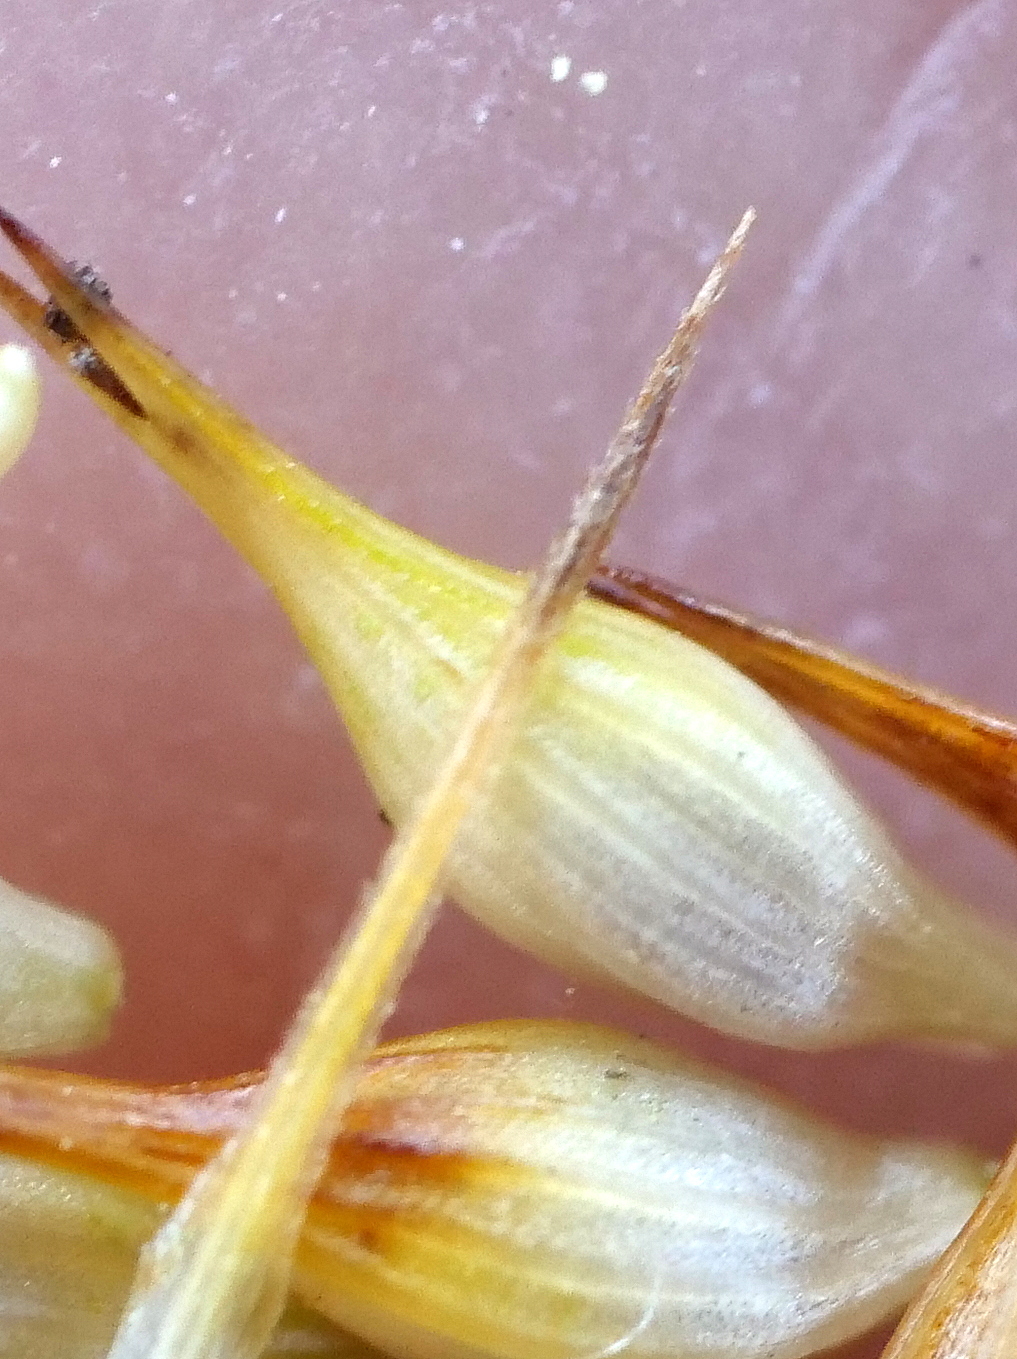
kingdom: Plantae
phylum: Tracheophyta
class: Liliopsida
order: Poales
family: Cyperaceae
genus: Carex
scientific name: Carex pseudocyperus
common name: Cyperus sedge
